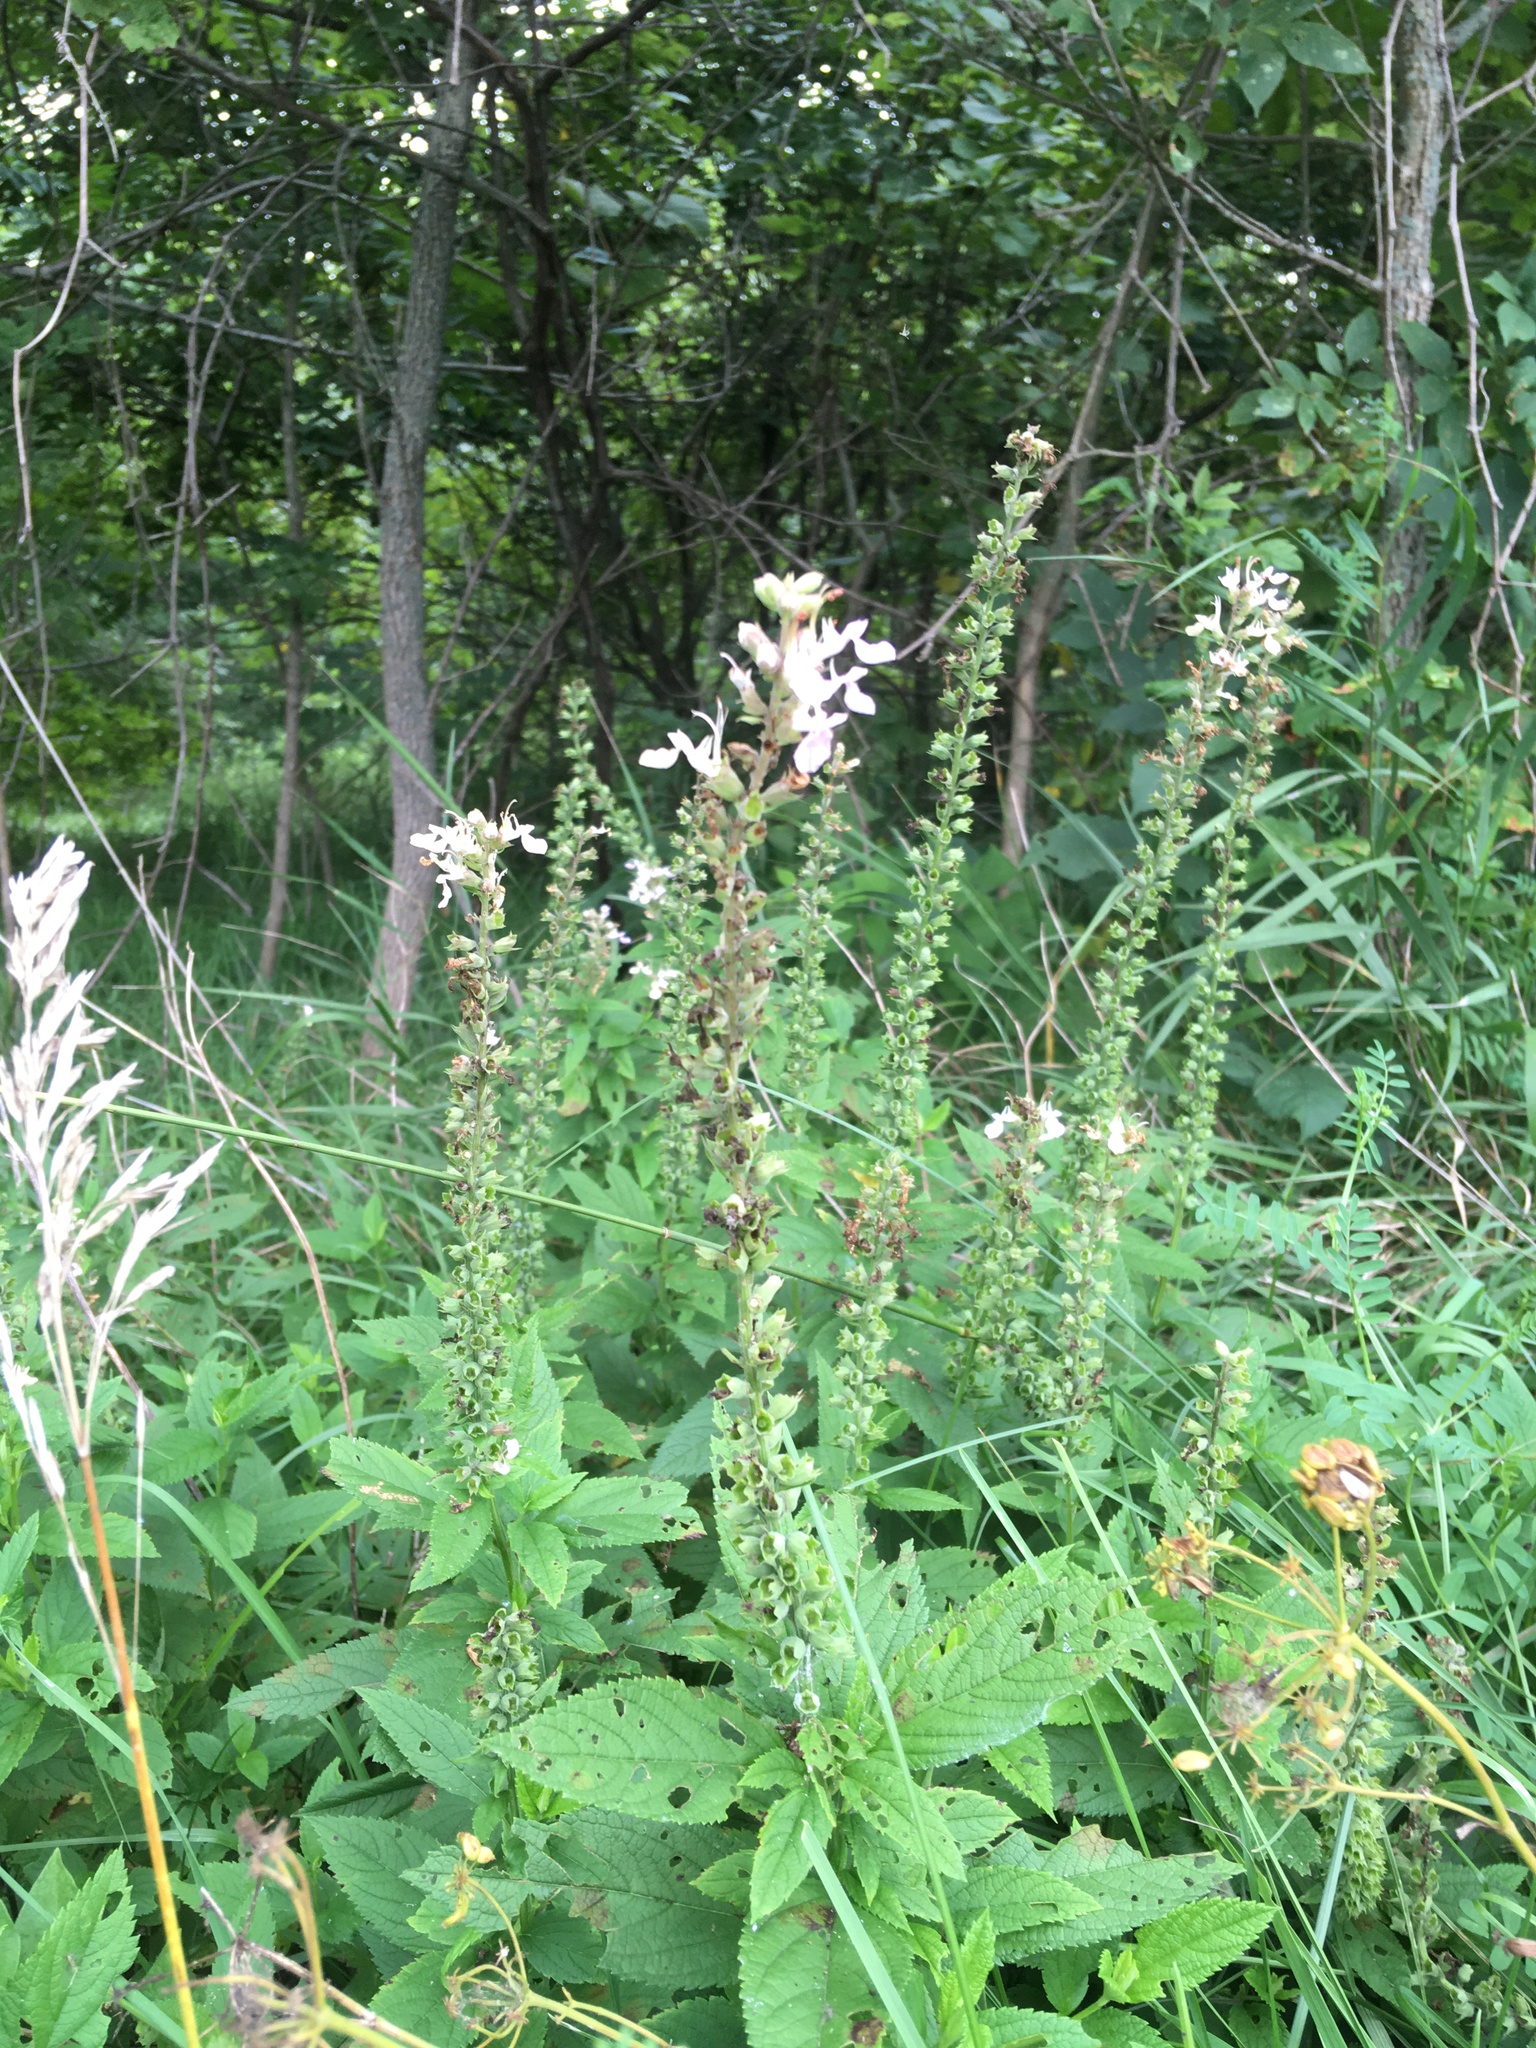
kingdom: Plantae
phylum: Tracheophyta
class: Magnoliopsida
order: Lamiales
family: Lamiaceae
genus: Teucrium
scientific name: Teucrium canadense
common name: American germander
